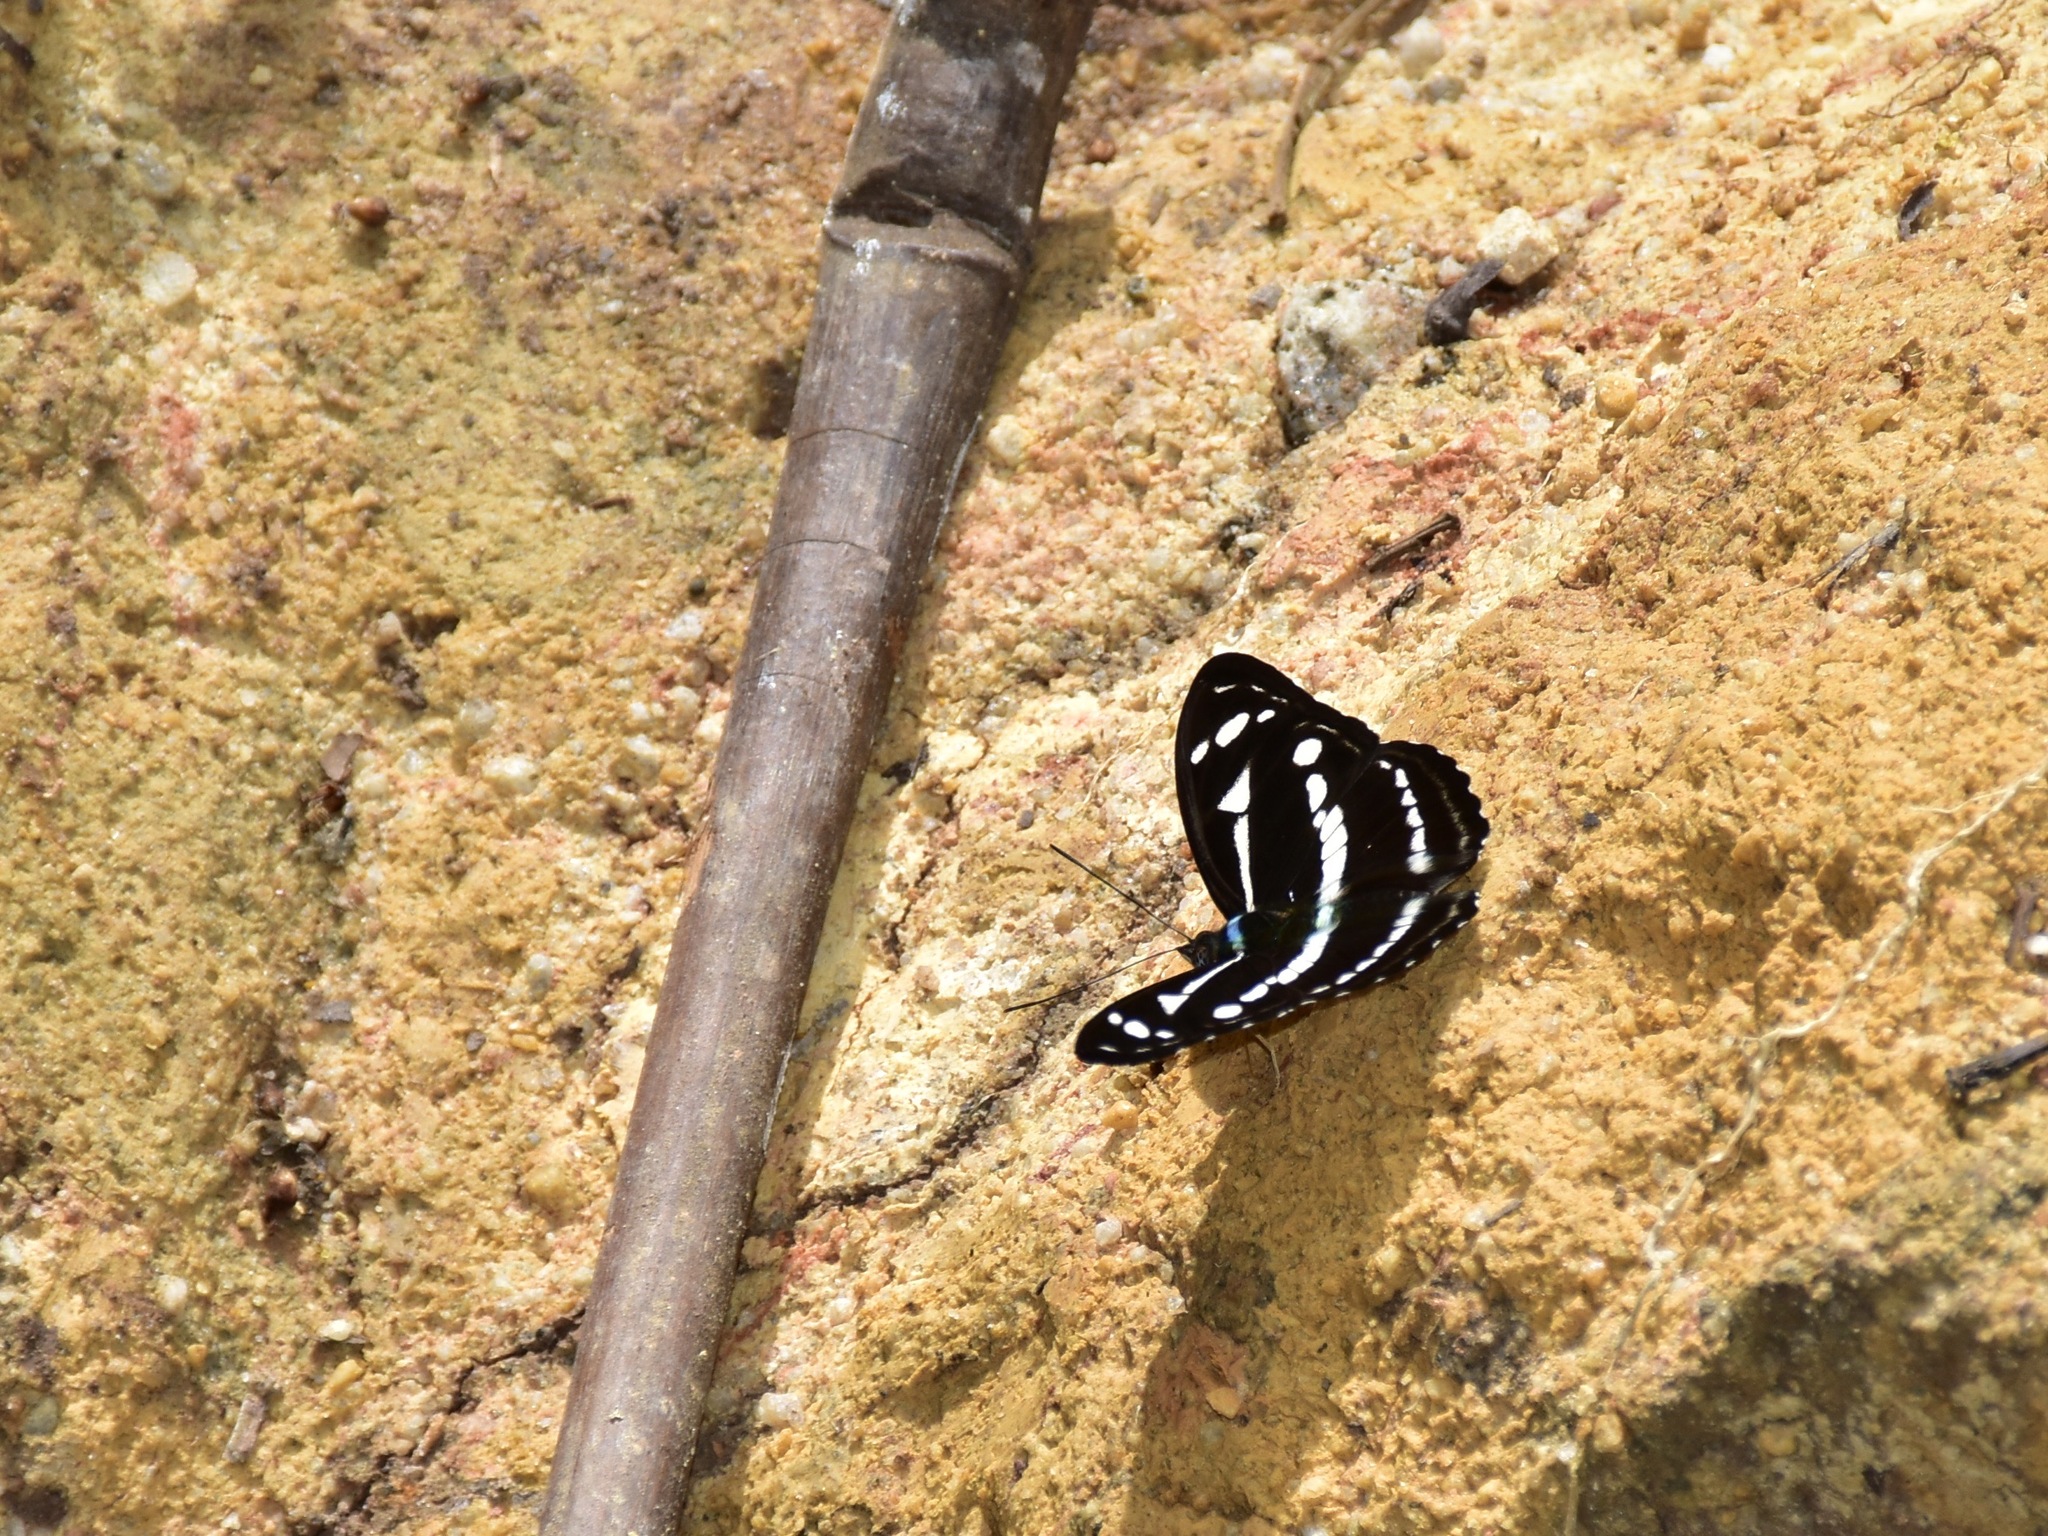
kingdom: Animalia
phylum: Arthropoda
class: Insecta
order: Lepidoptera
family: Nymphalidae
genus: Parathyma
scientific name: Parathyma kanwa
